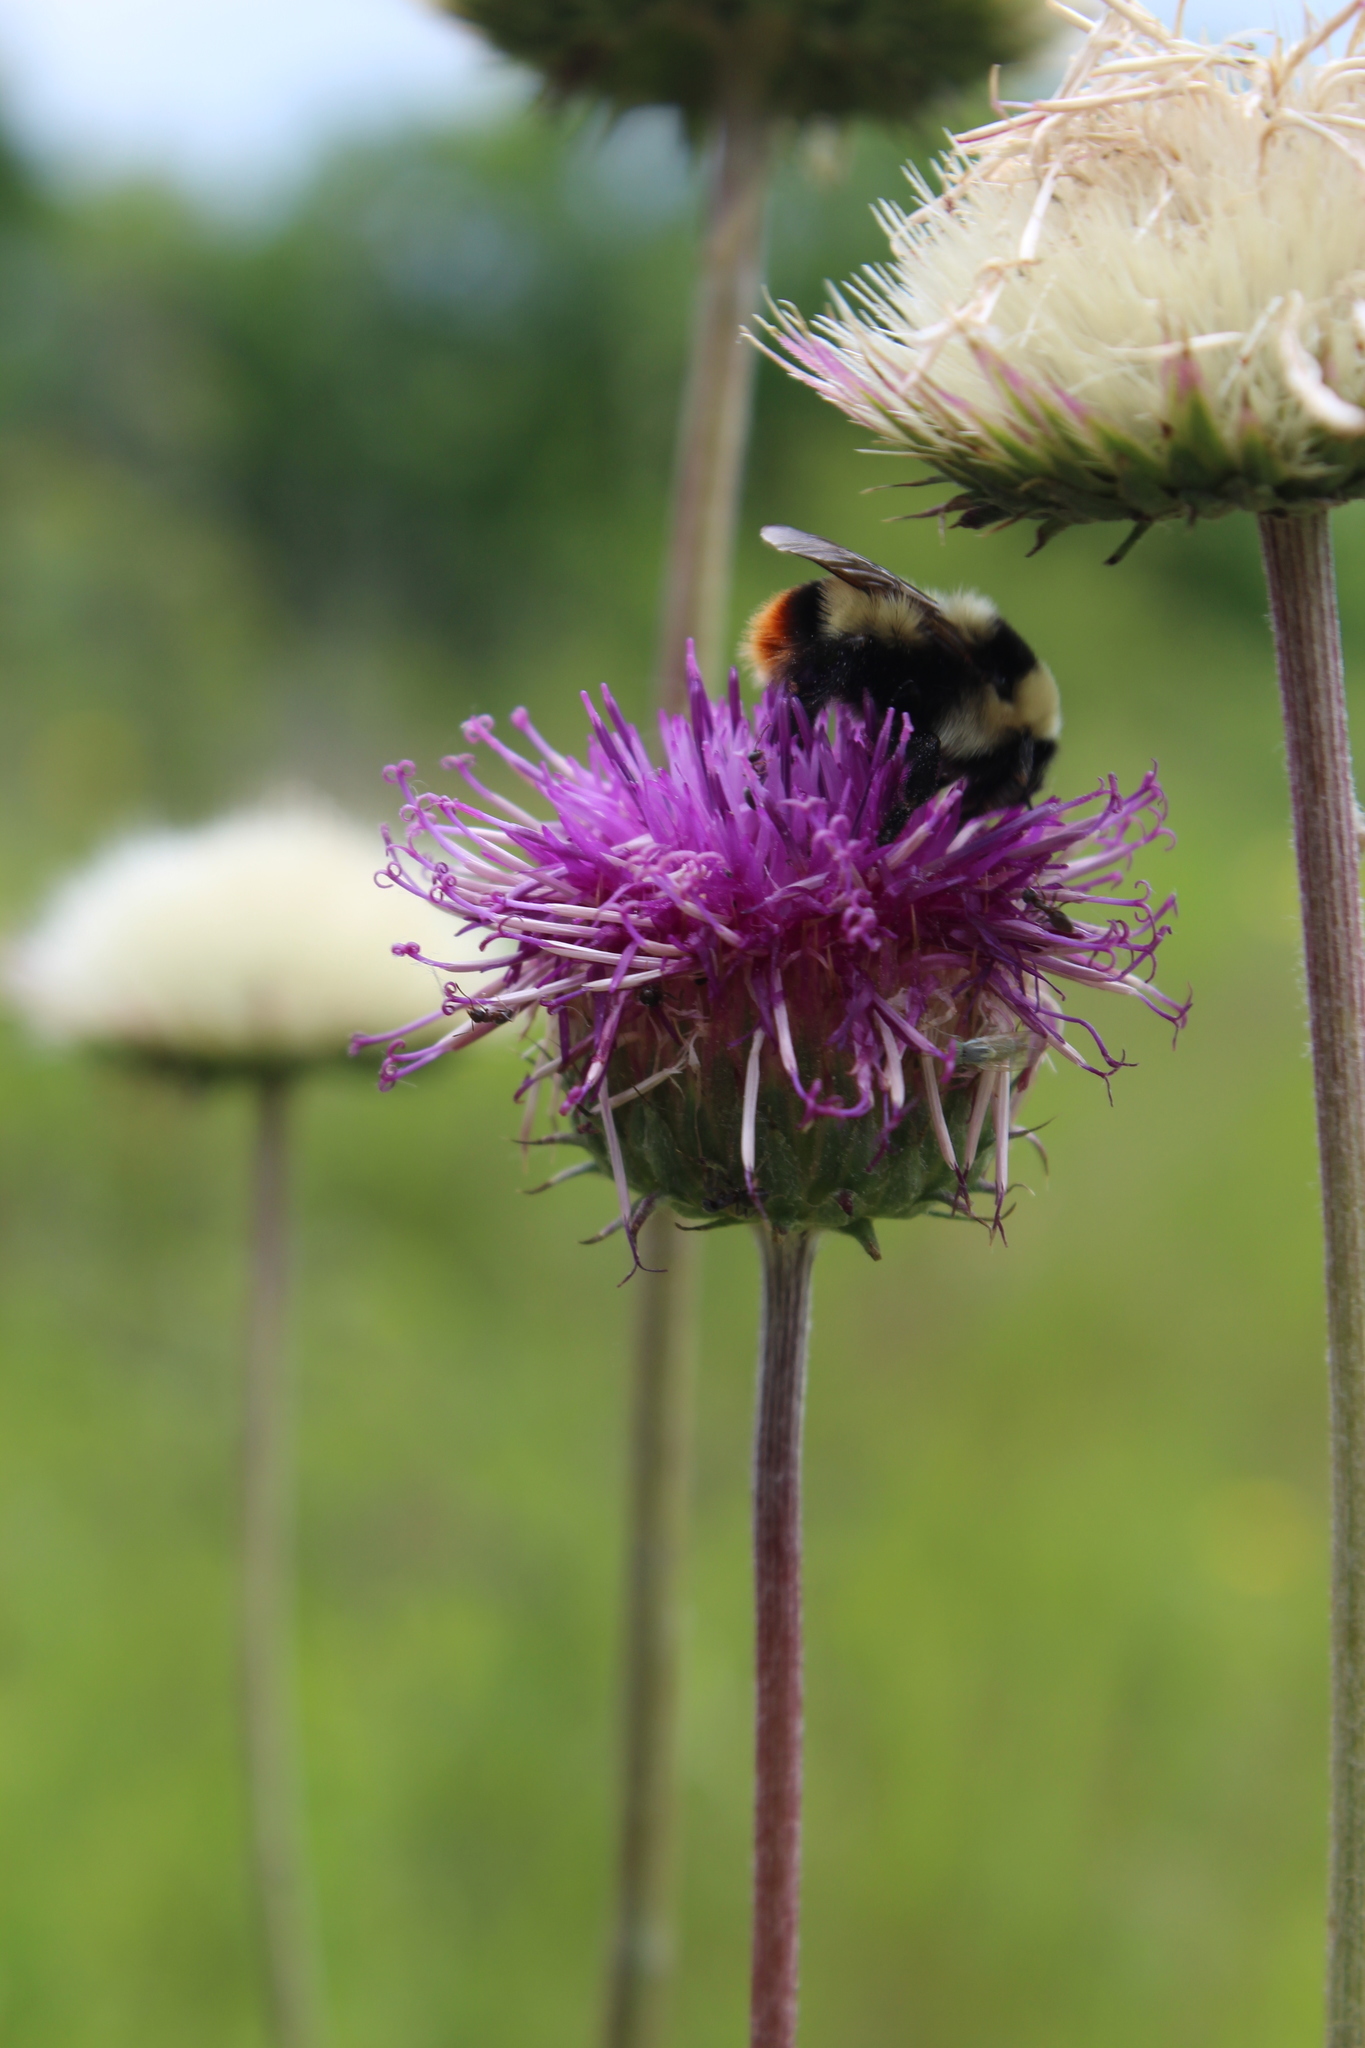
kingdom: Animalia
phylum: Arthropoda
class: Insecta
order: Hymenoptera
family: Apidae
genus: Bombus
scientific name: Bombus cullumanus
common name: Cullum's bumblebee
